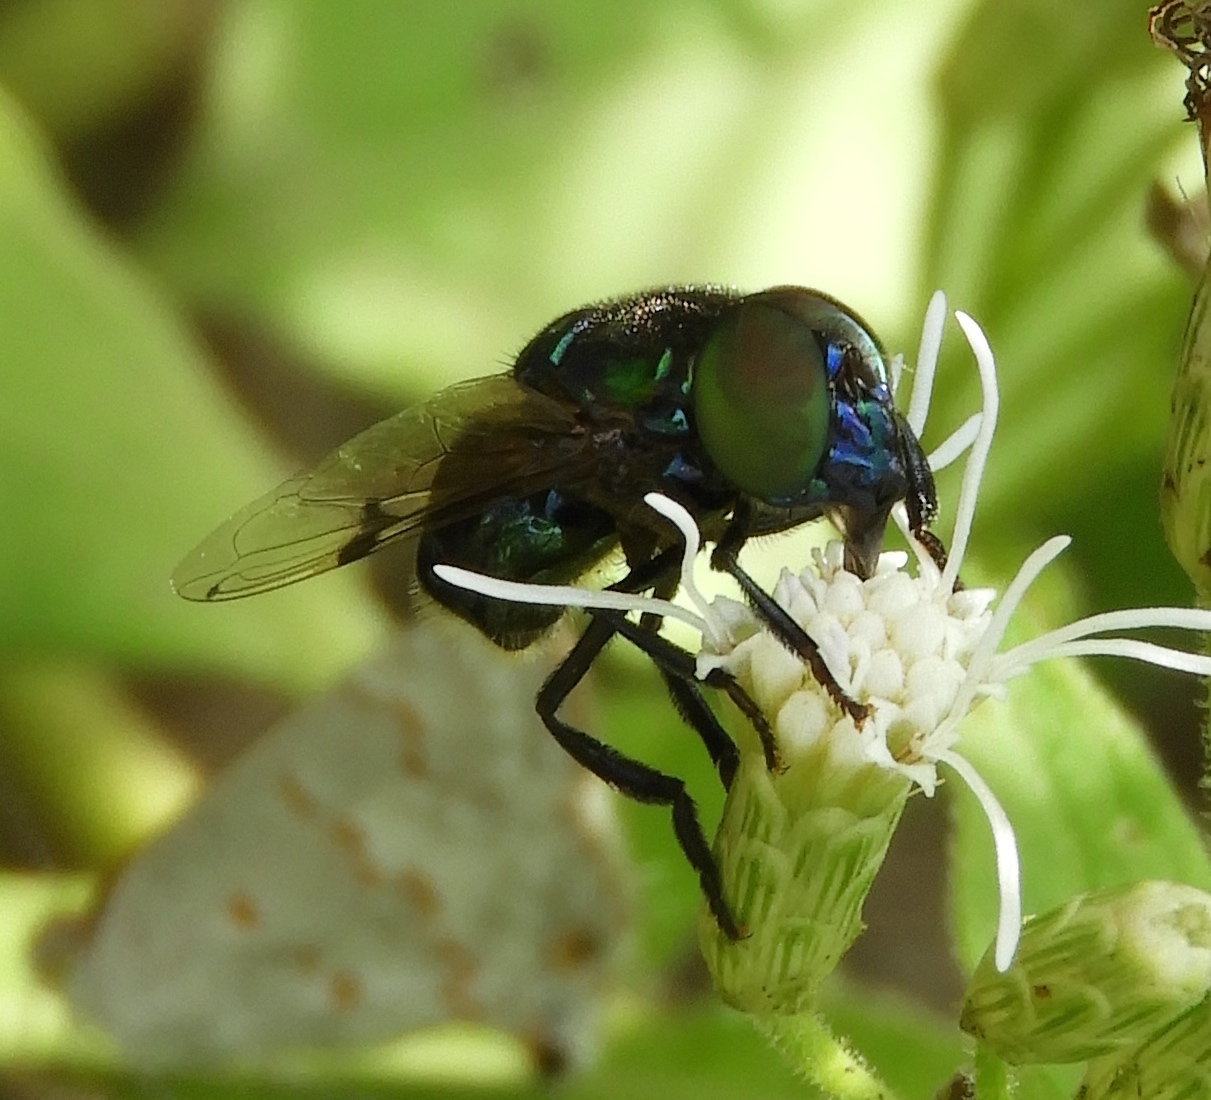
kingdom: Animalia
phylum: Arthropoda
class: Insecta
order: Diptera
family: Syrphidae
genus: Ornidia
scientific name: Ornidia
